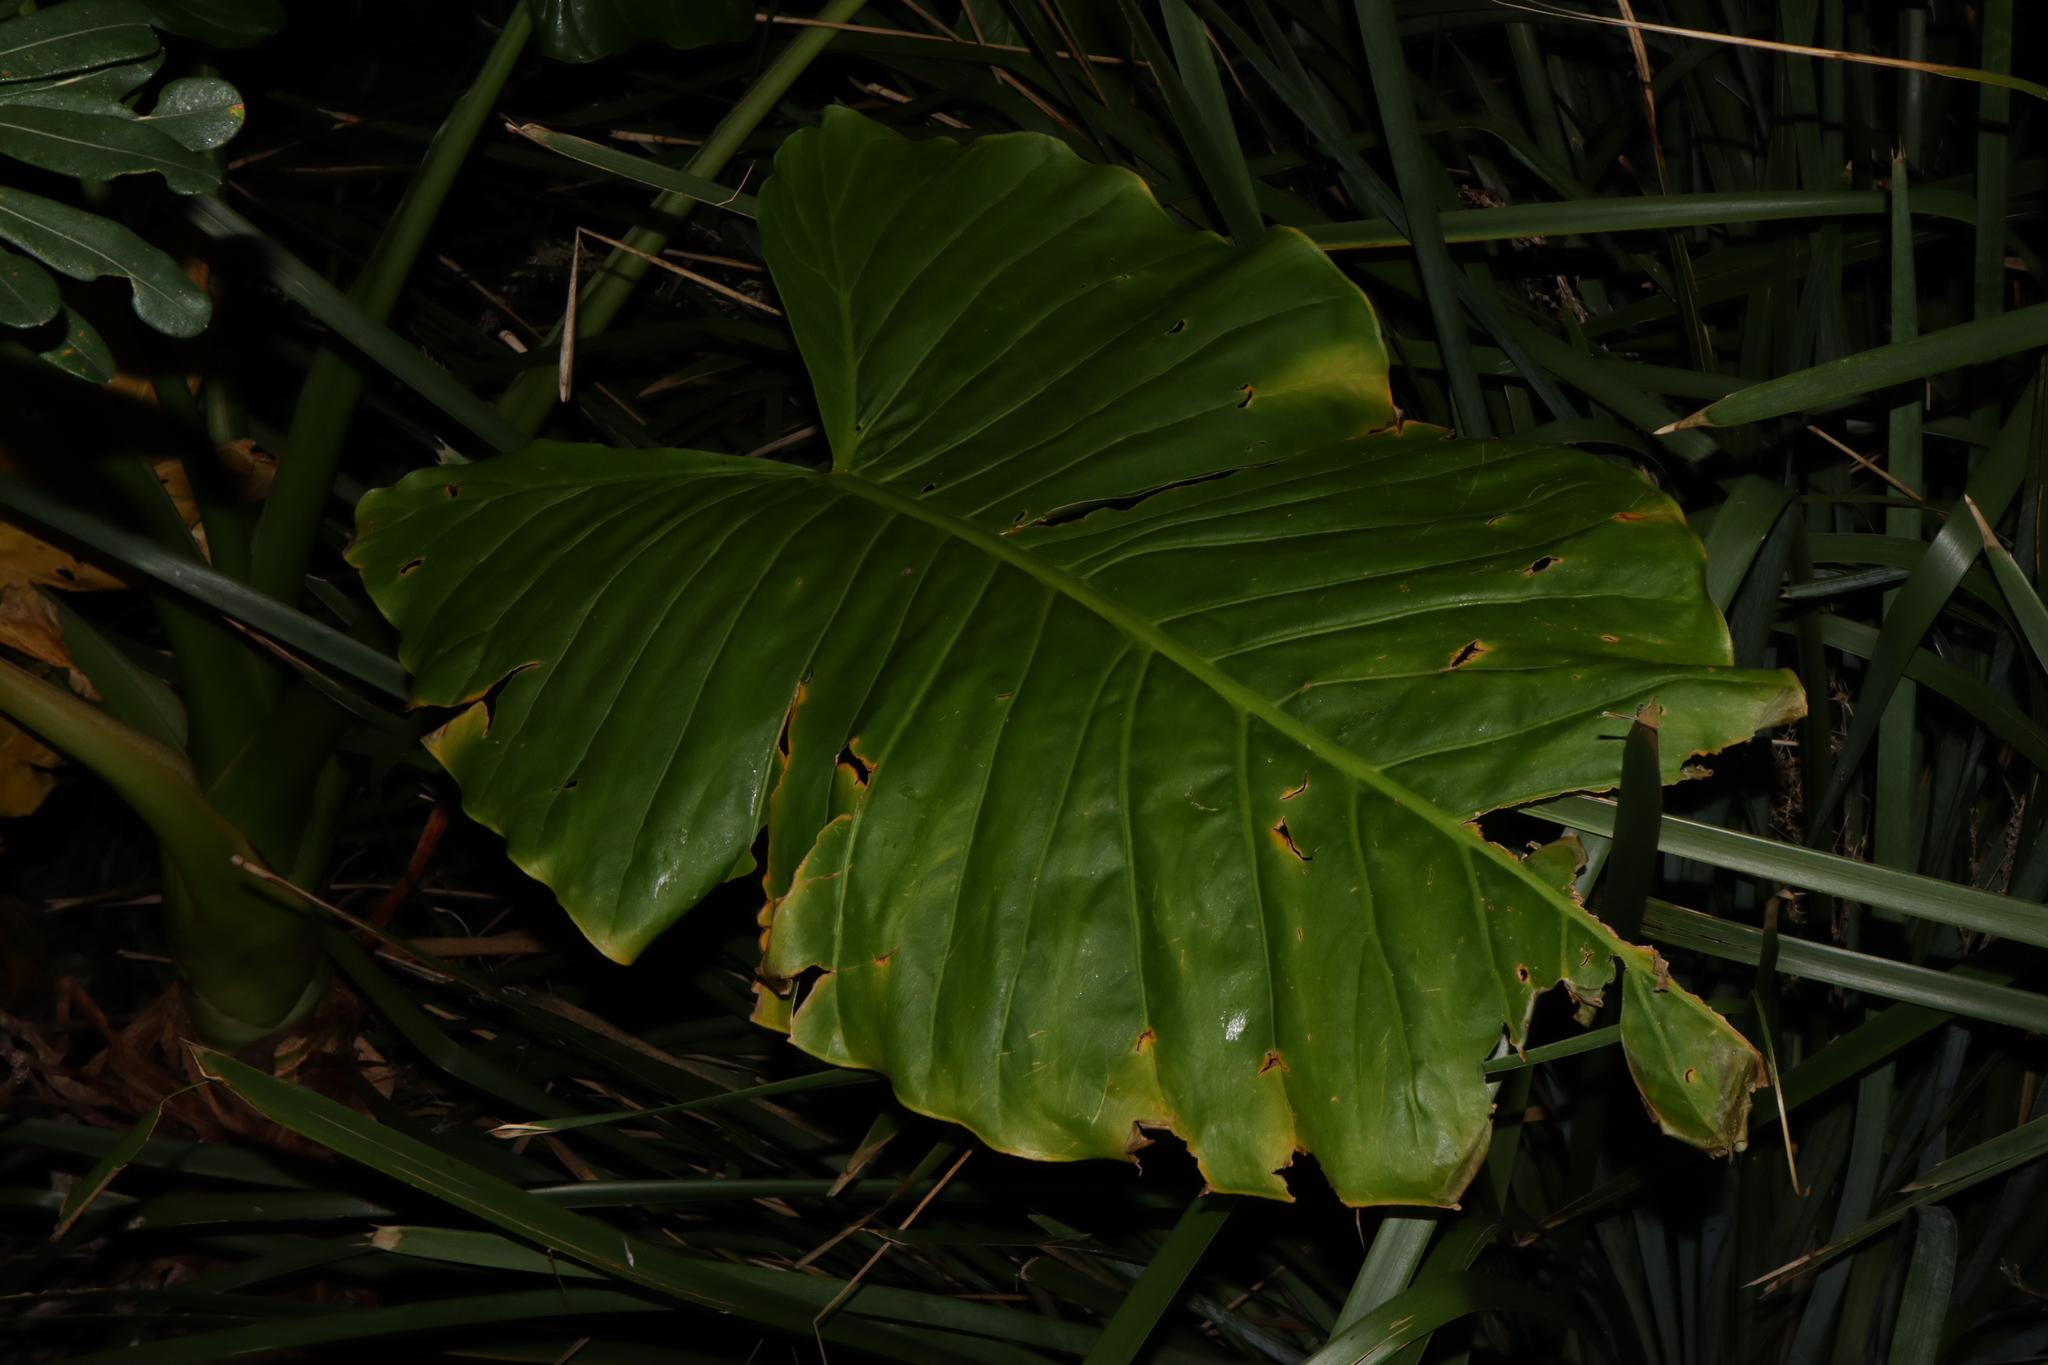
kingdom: Plantae
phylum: Tracheophyta
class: Liliopsida
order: Alismatales
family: Araceae
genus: Alocasia
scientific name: Alocasia brisbanensis
